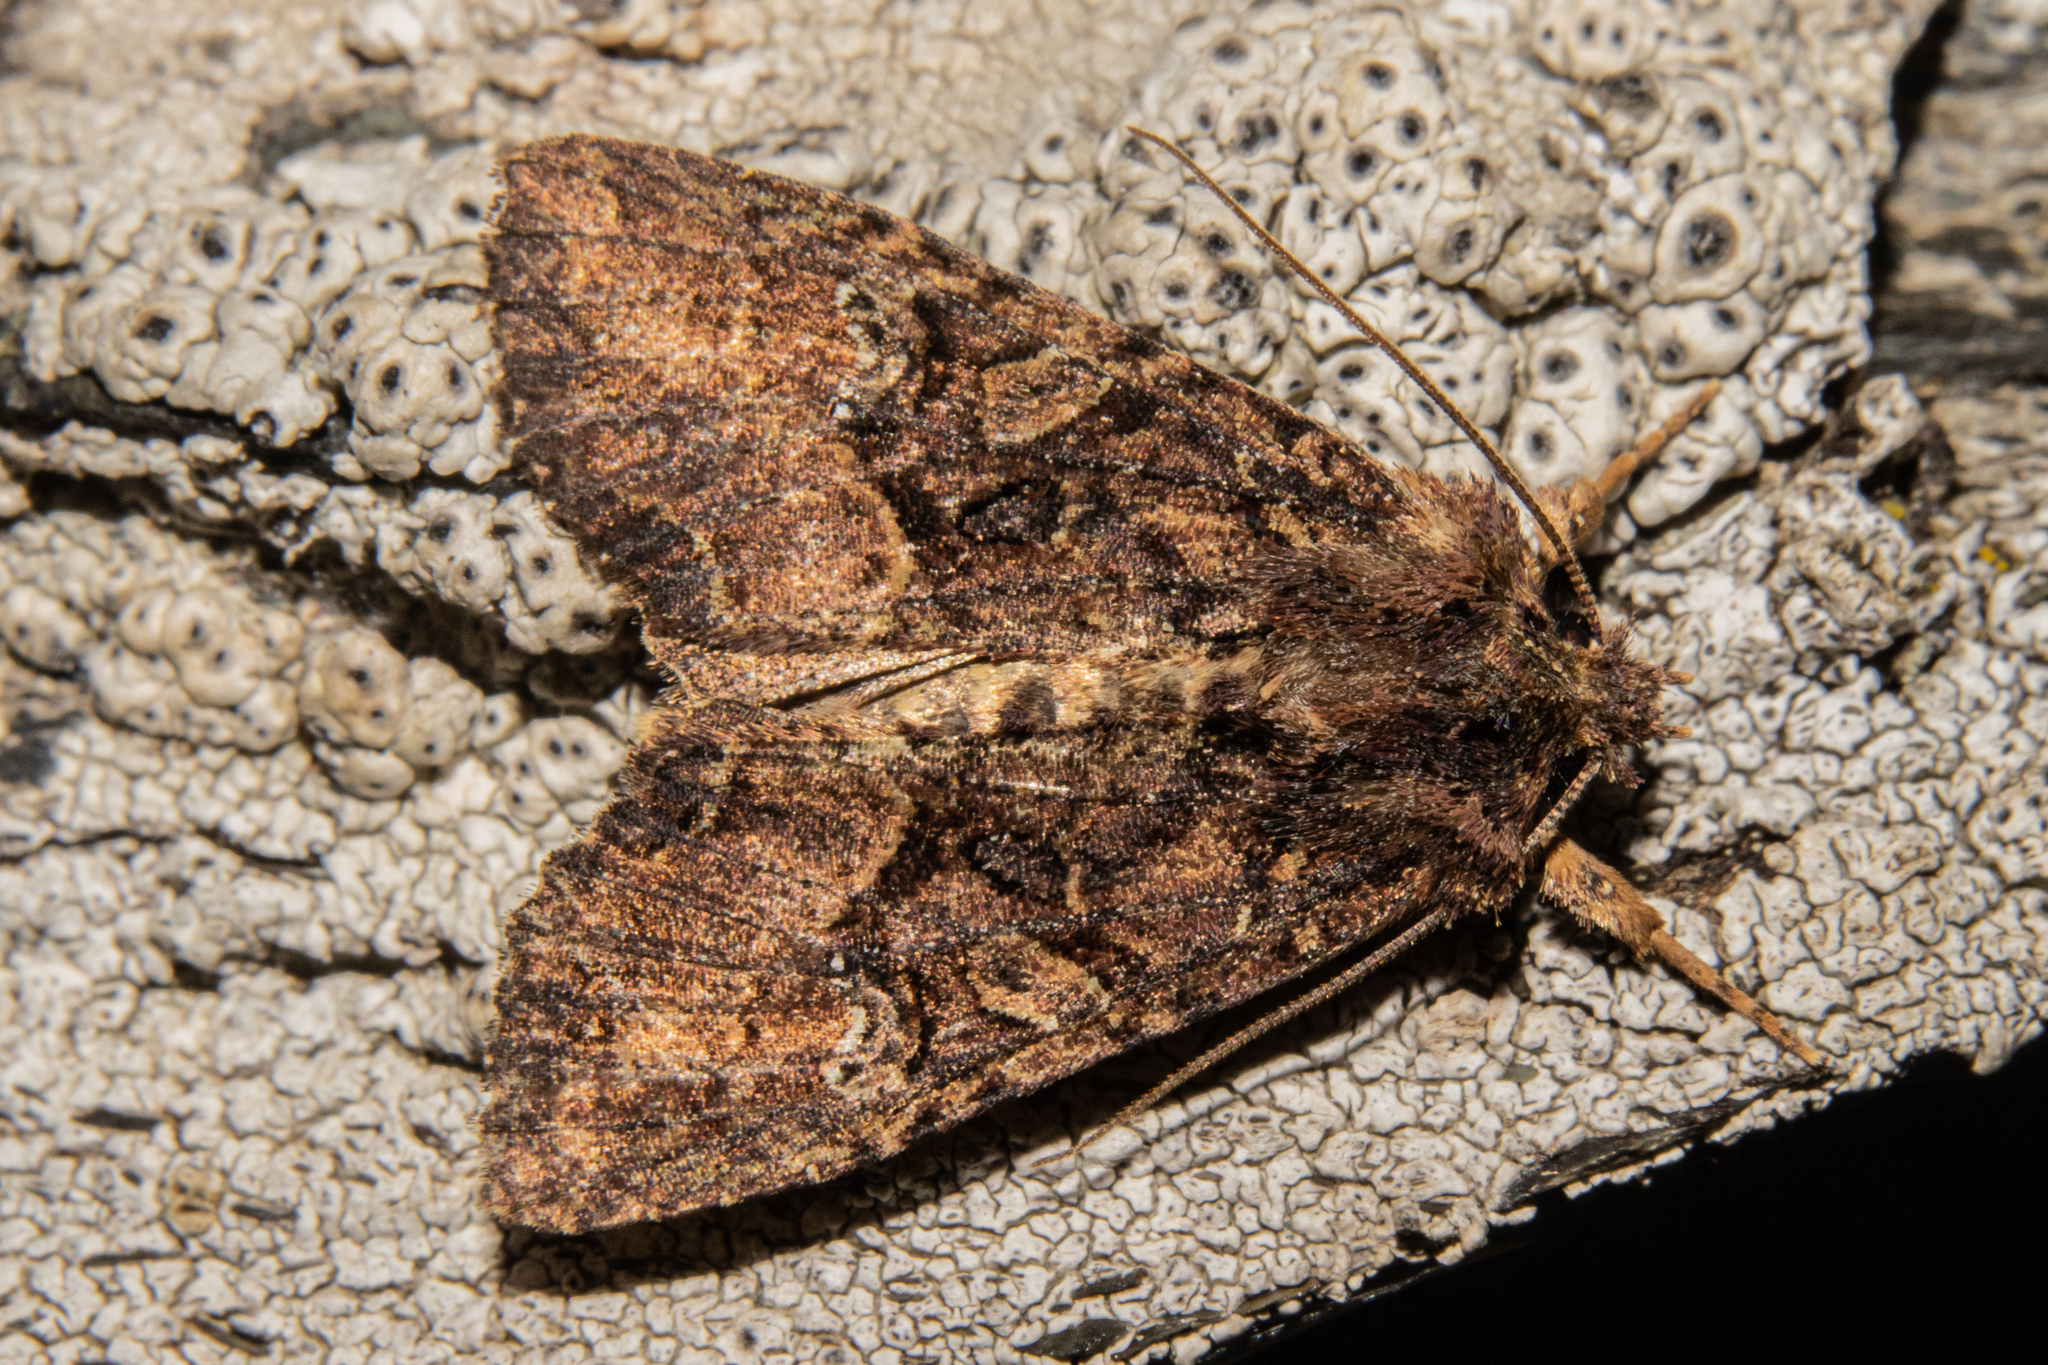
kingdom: Animalia
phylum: Arthropoda
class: Insecta
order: Lepidoptera
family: Noctuidae
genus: Meterana
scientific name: Meterana ochthistis
